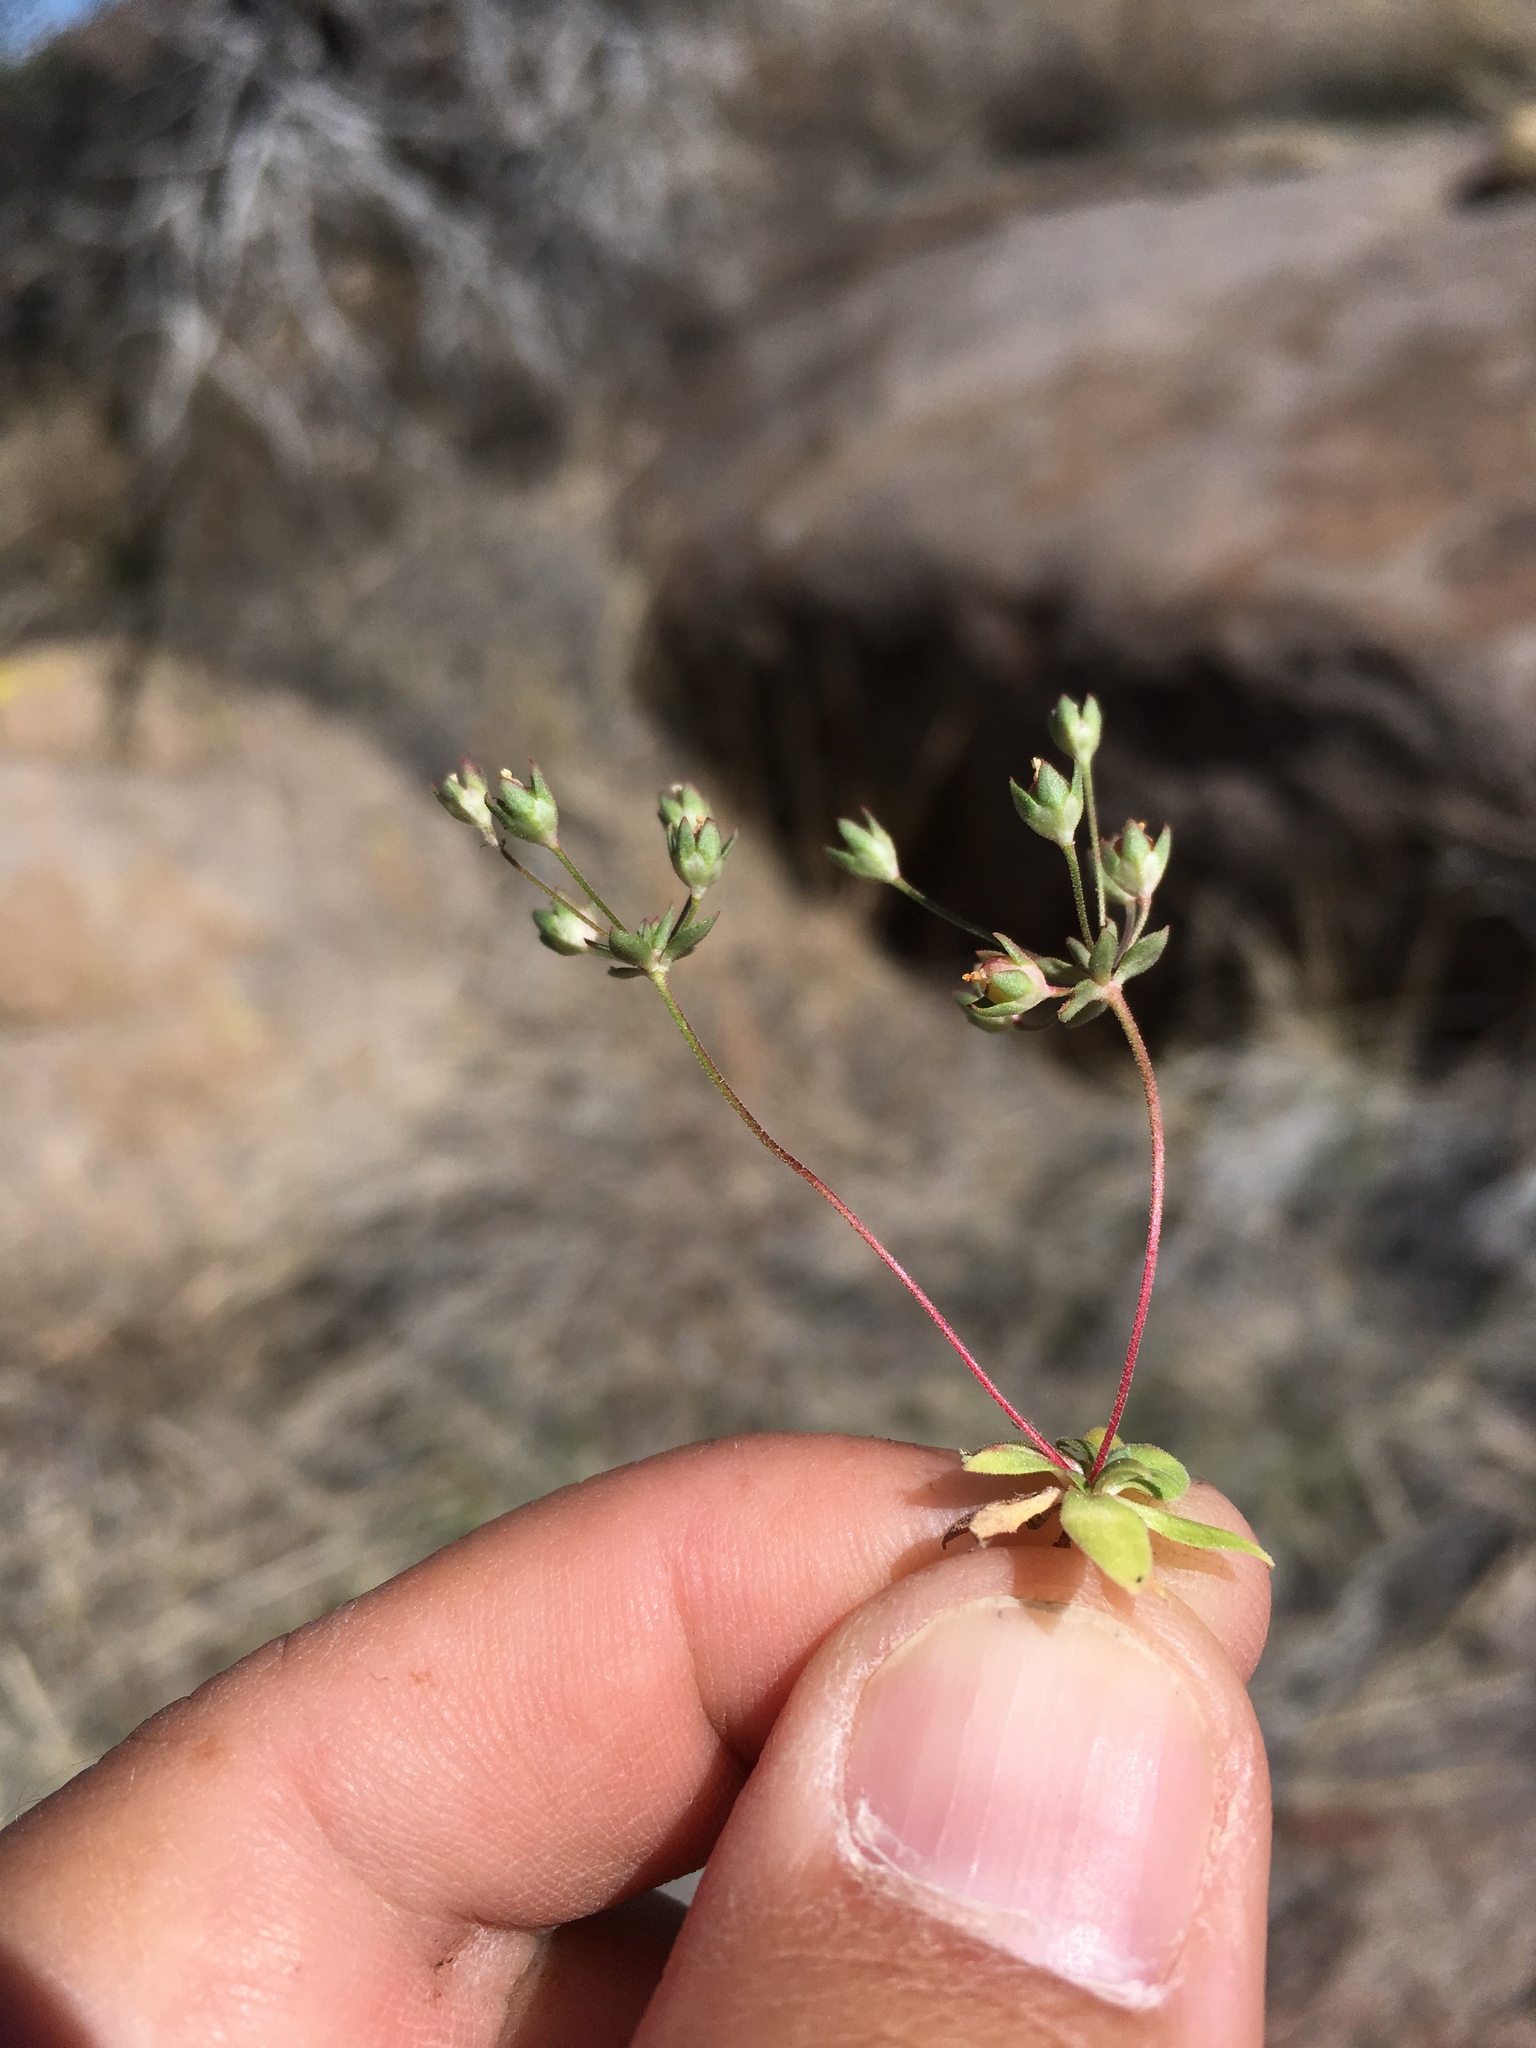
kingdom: Plantae
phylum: Tracheophyta
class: Magnoliopsida
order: Ericales
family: Primulaceae
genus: Androsace
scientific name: Androsace occidentalis
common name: West rock-jasmine
